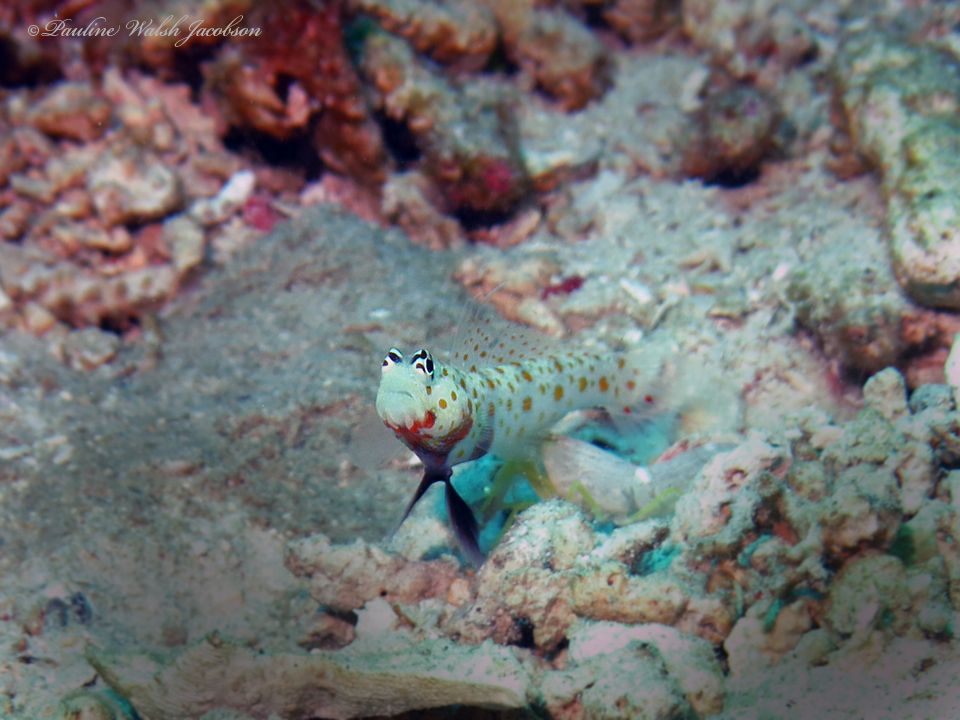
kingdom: Animalia
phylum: Chordata
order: Perciformes
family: Gobiidae
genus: Amblyeleotris
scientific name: Amblyeleotris guttata
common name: Black-chest shrimp-goby
